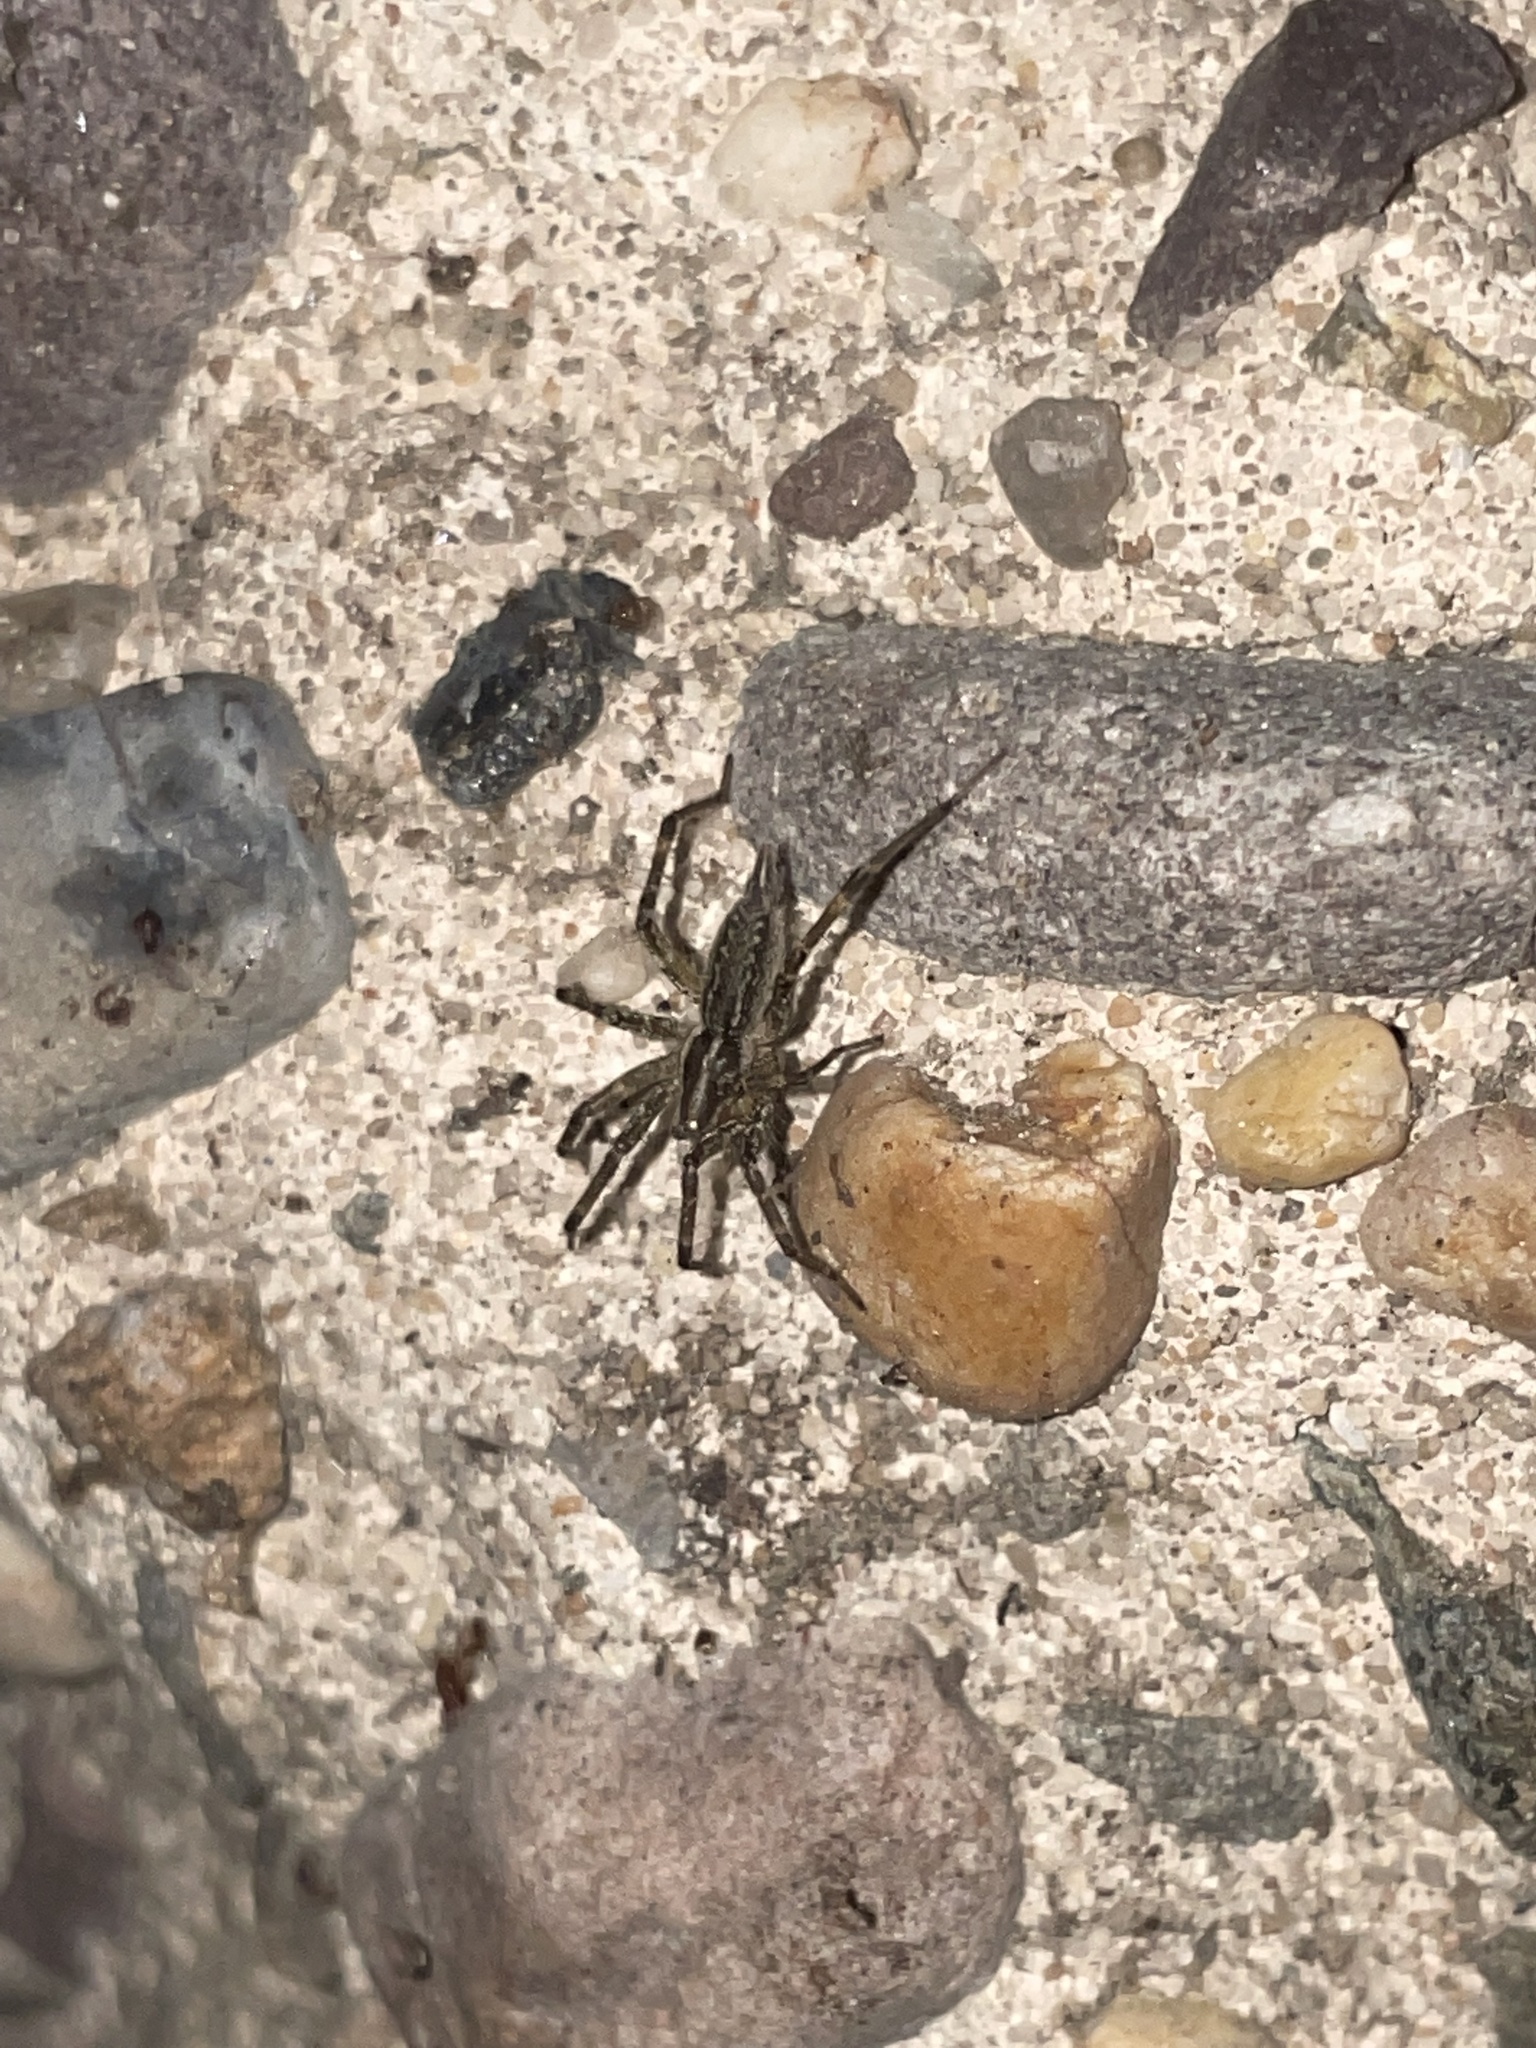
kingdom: Animalia
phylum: Arthropoda
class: Arachnida
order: Araneae
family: Agelenidae
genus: Agelenopsis
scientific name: Agelenopsis
